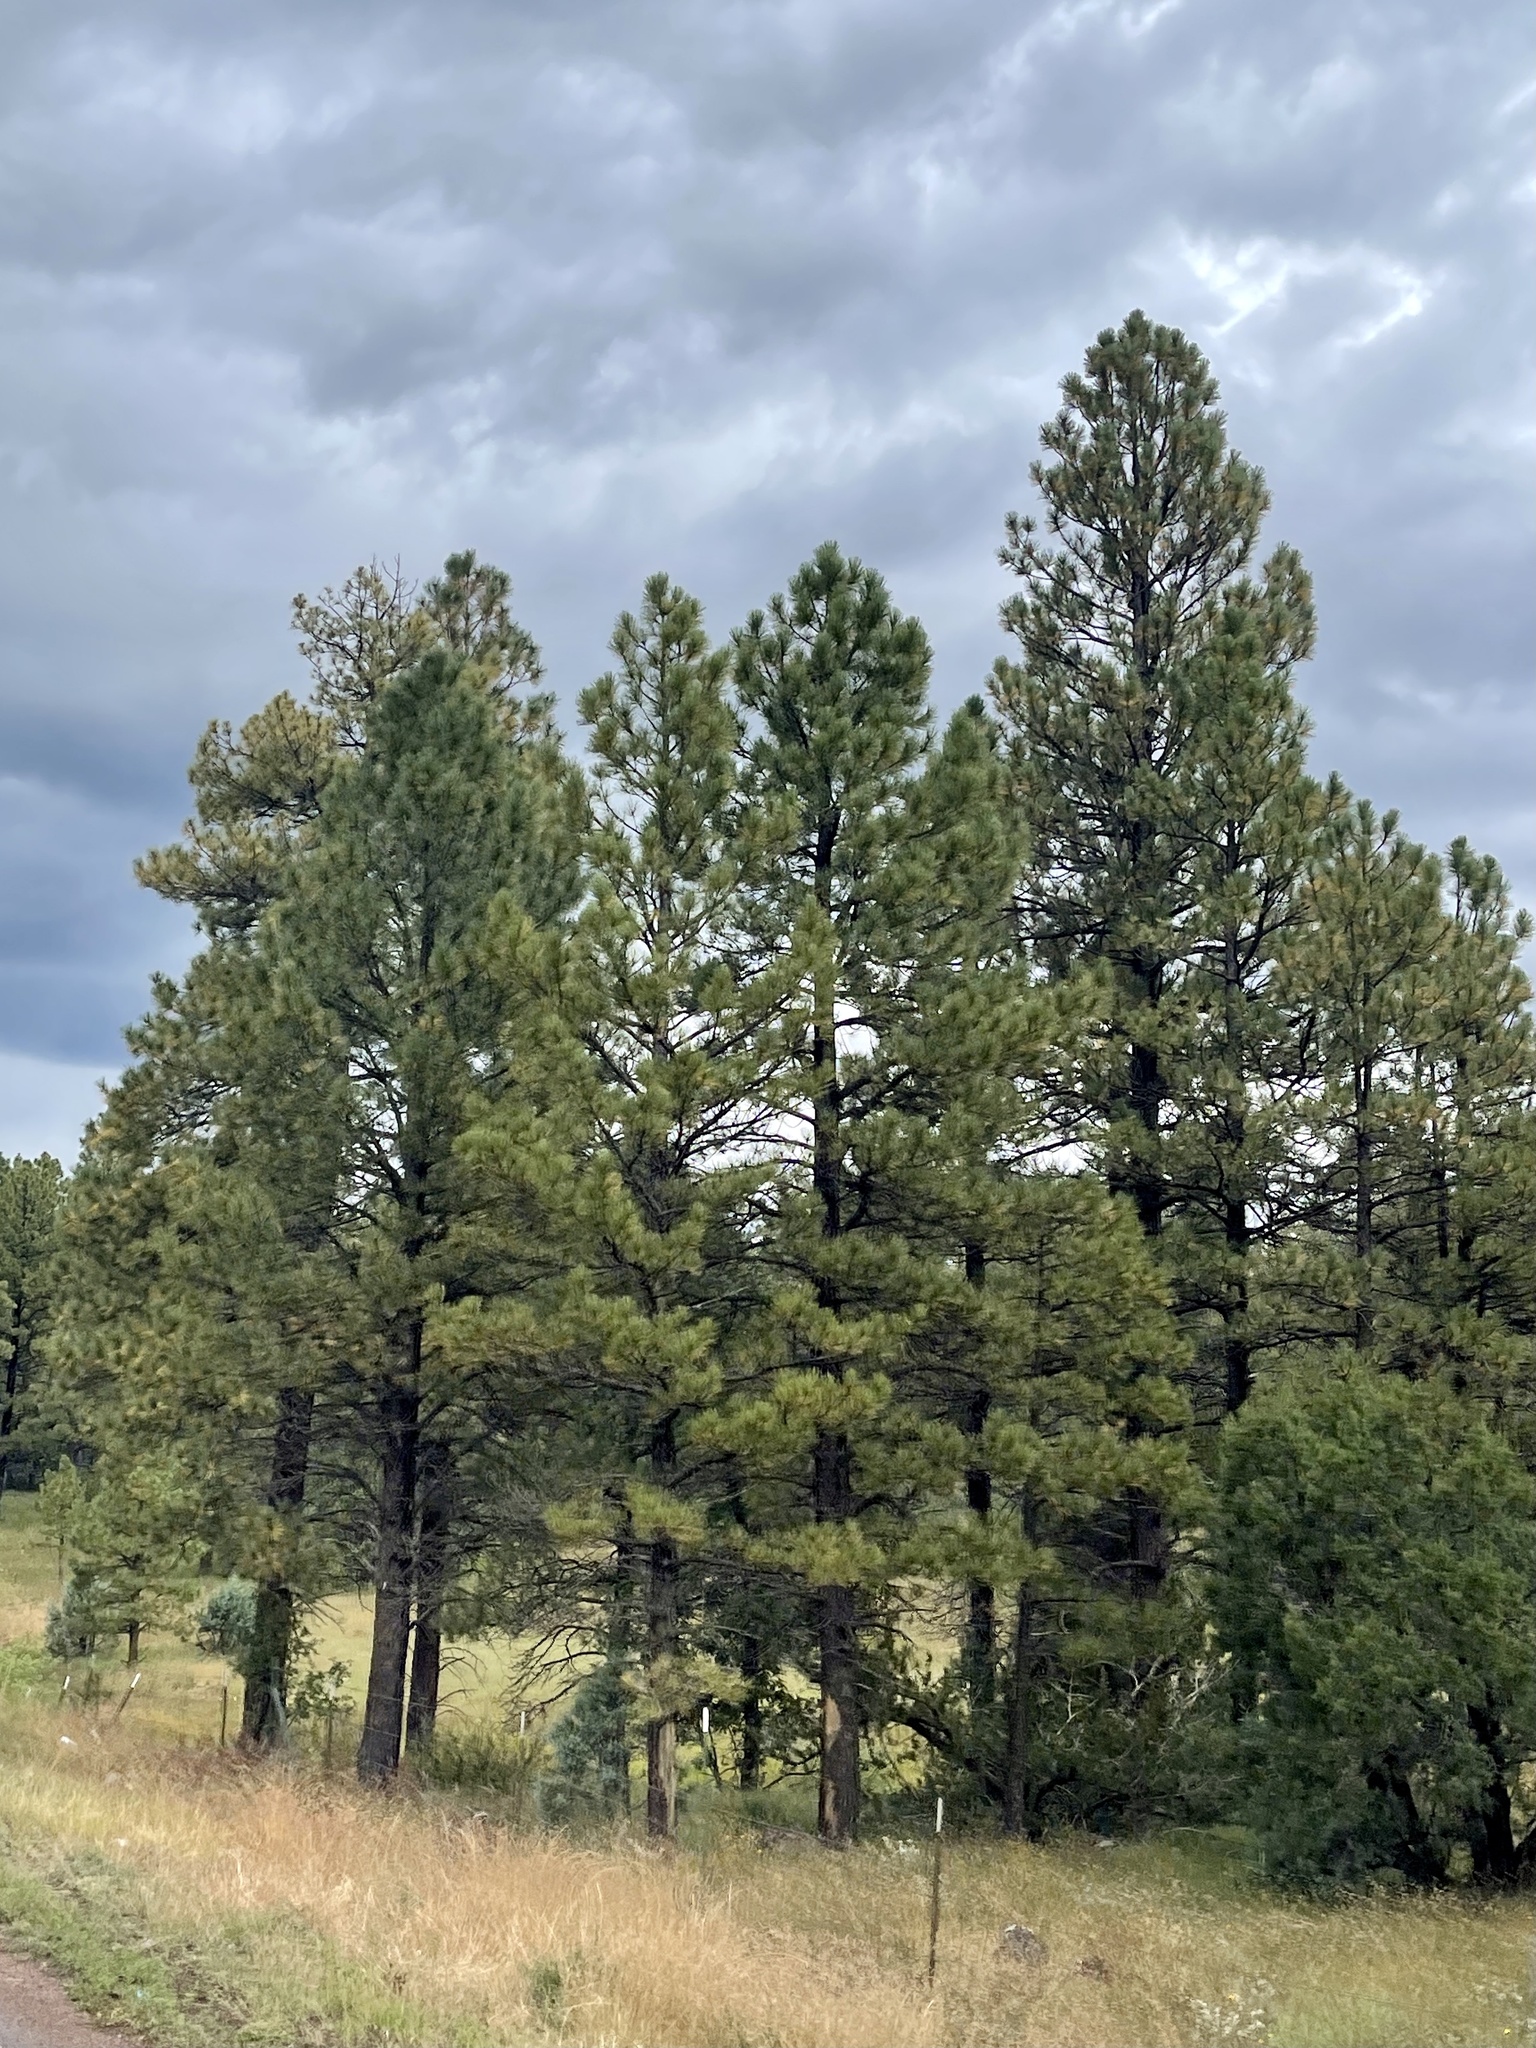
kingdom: Plantae
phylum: Tracheophyta
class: Pinopsida
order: Pinales
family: Pinaceae
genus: Pinus
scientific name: Pinus ponderosa
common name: Western yellow-pine
